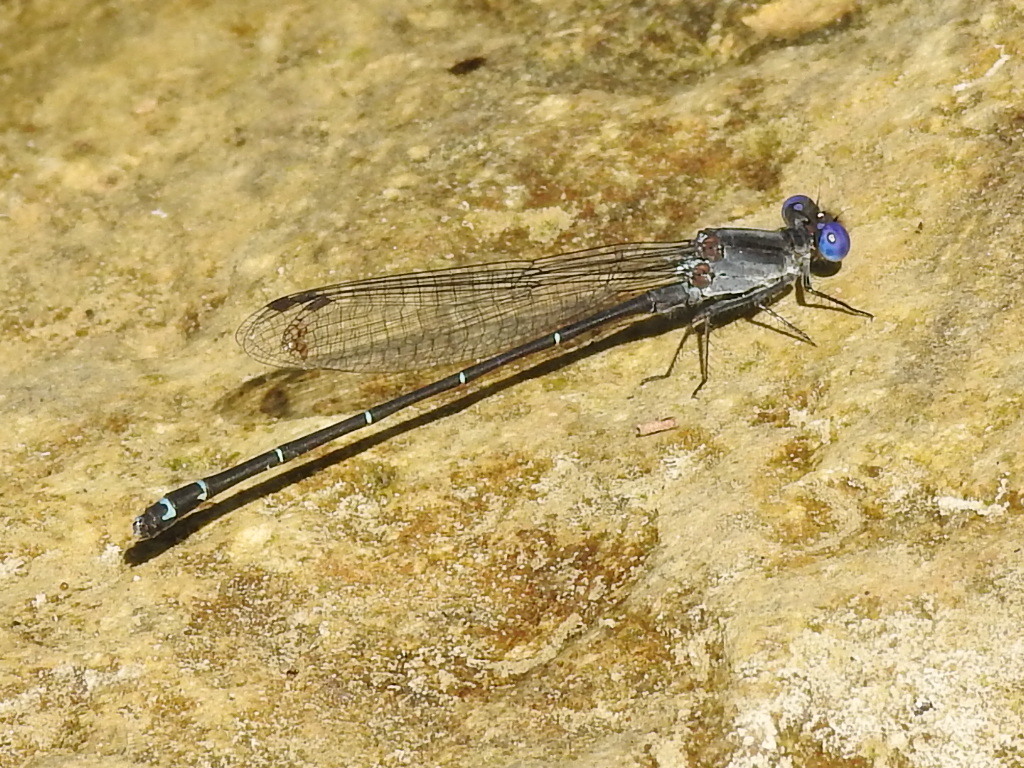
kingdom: Animalia
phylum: Arthropoda
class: Insecta
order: Odonata
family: Coenagrionidae
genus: Argia
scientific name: Argia translata
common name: Dusky dancer
